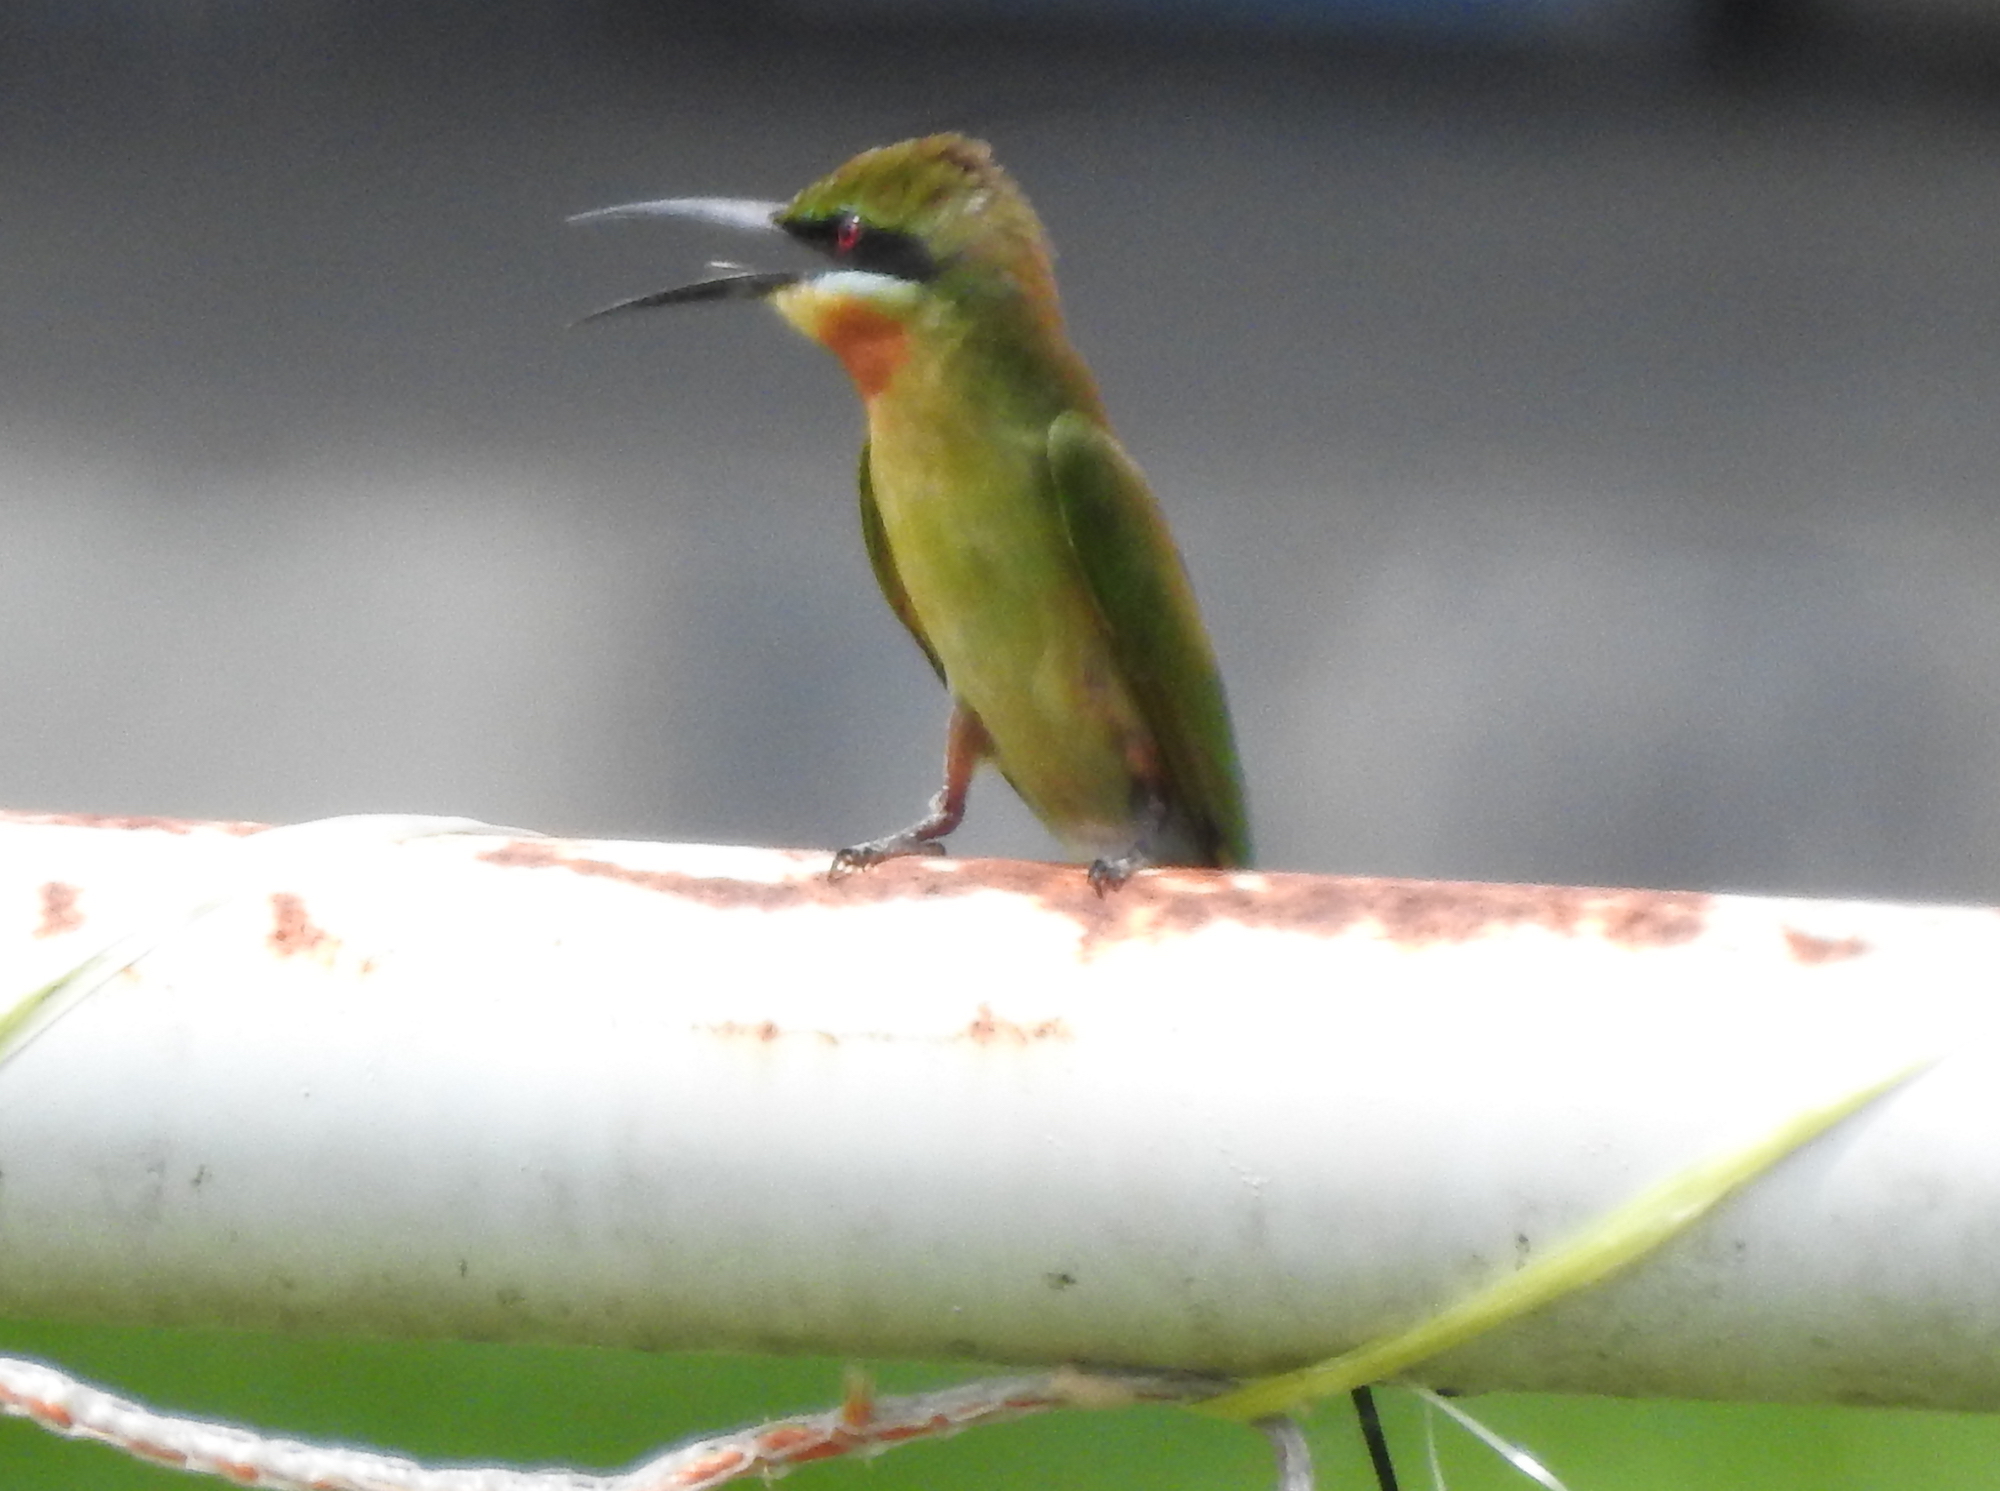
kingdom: Animalia
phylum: Chordata
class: Aves
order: Coraciiformes
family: Meropidae
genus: Merops
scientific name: Merops philippinus
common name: Blue-tailed bee-eater
